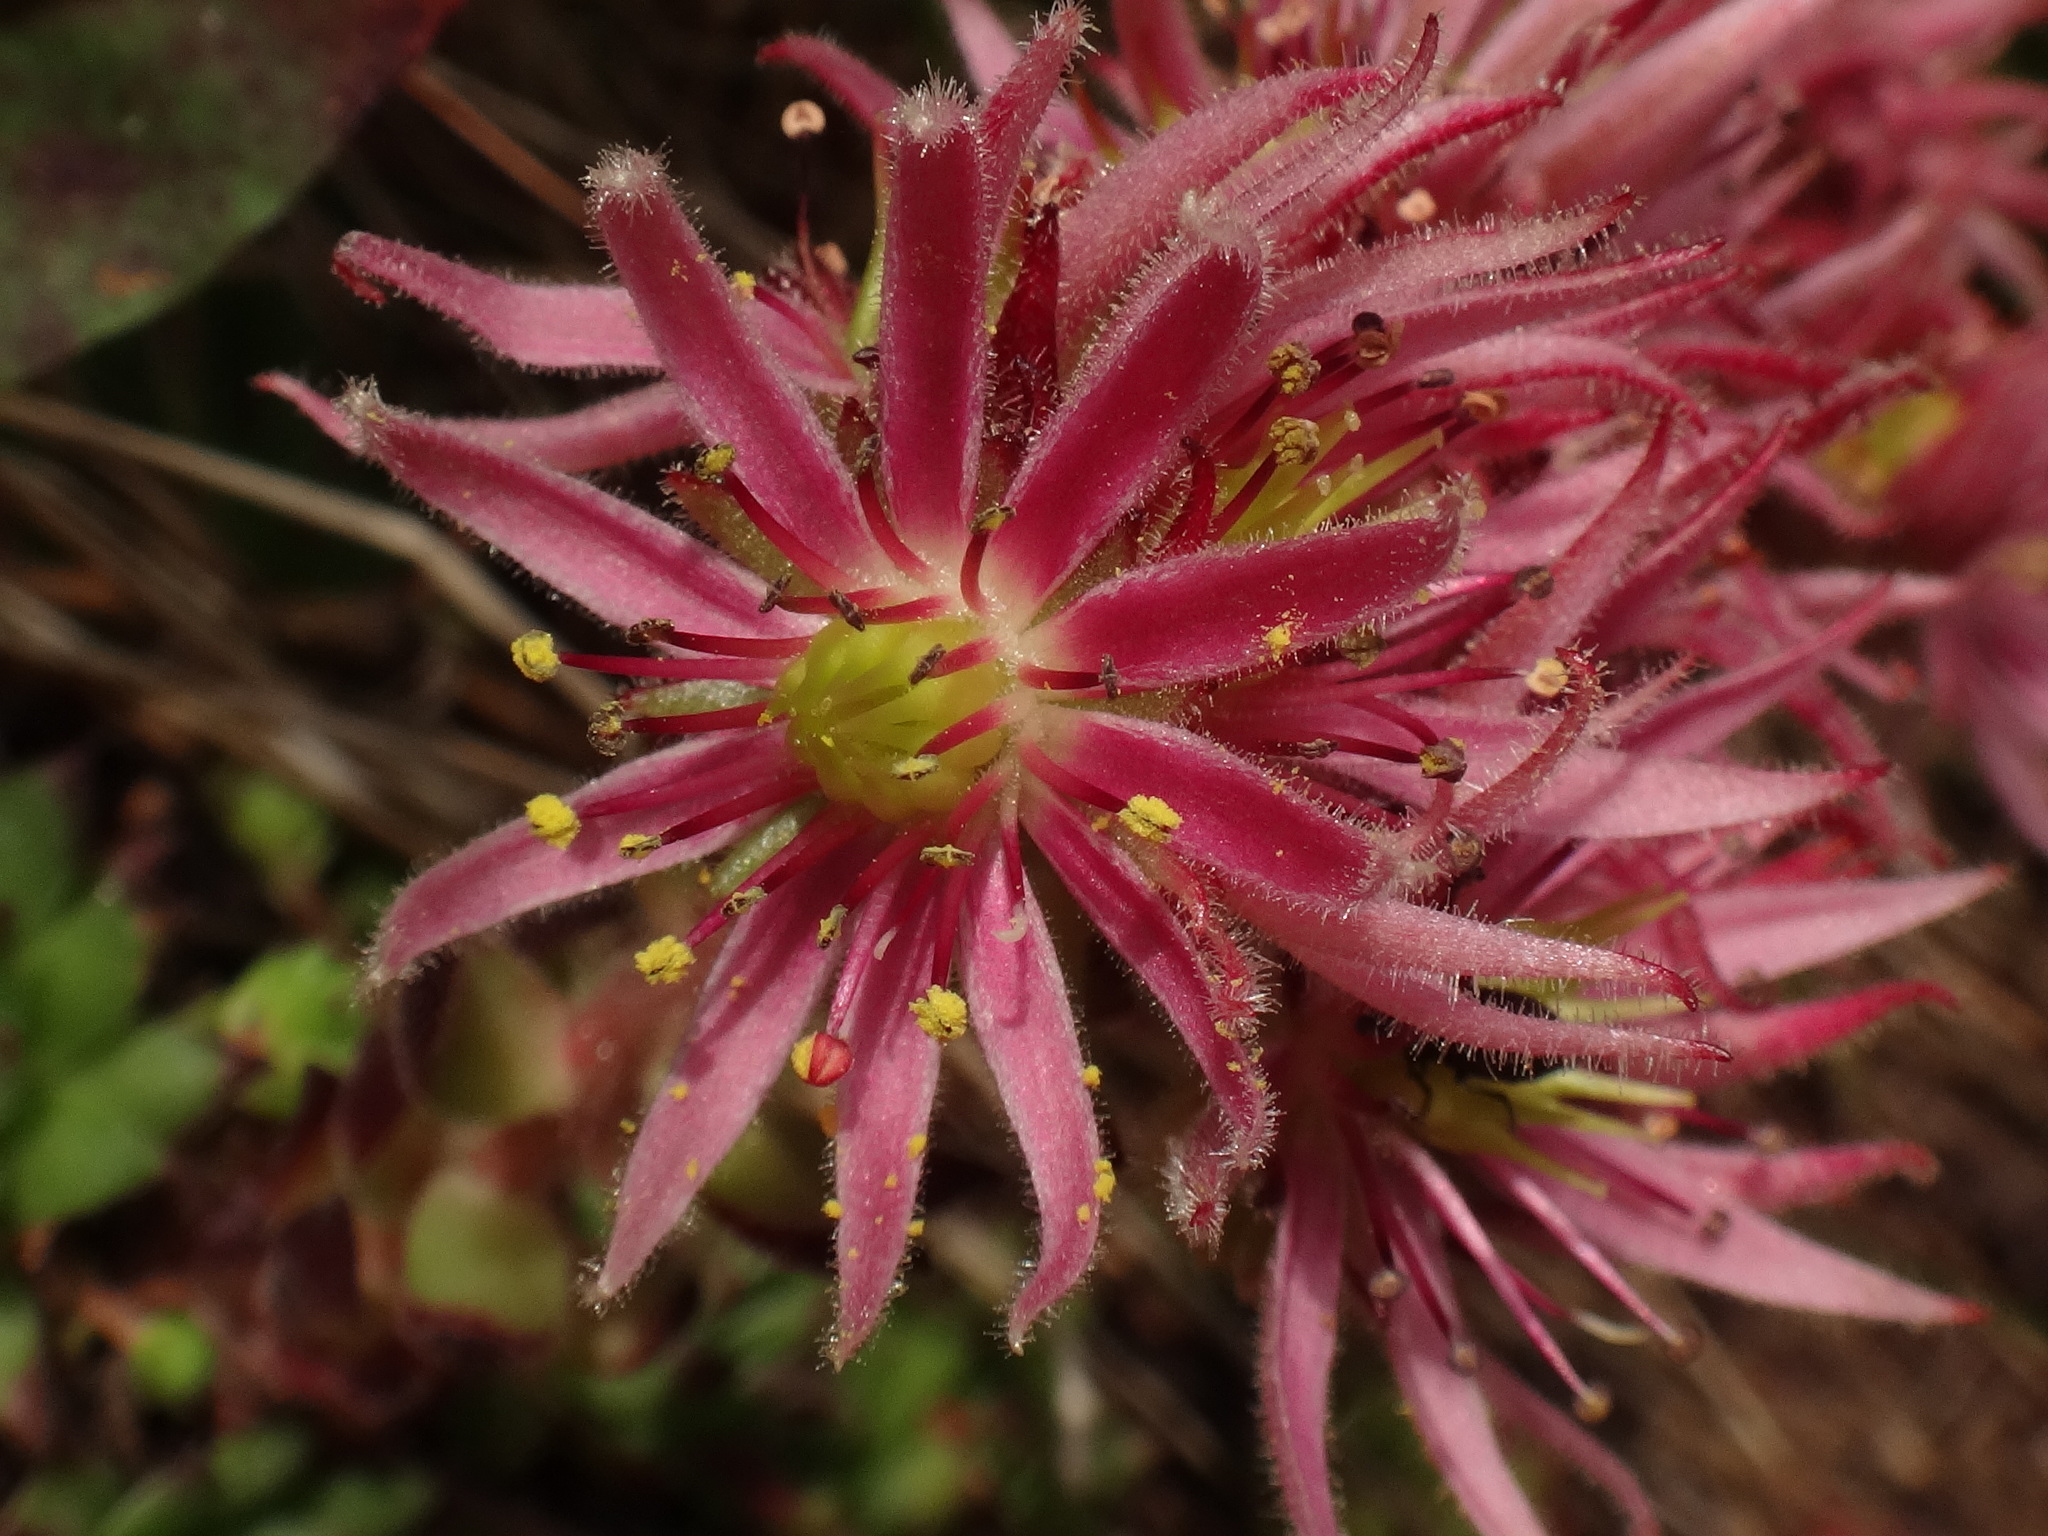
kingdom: Plantae
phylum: Tracheophyta
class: Magnoliopsida
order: Saxifragales
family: Crassulaceae
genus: Sempervivum
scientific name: Sempervivum montanum
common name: Mountain house-leek
